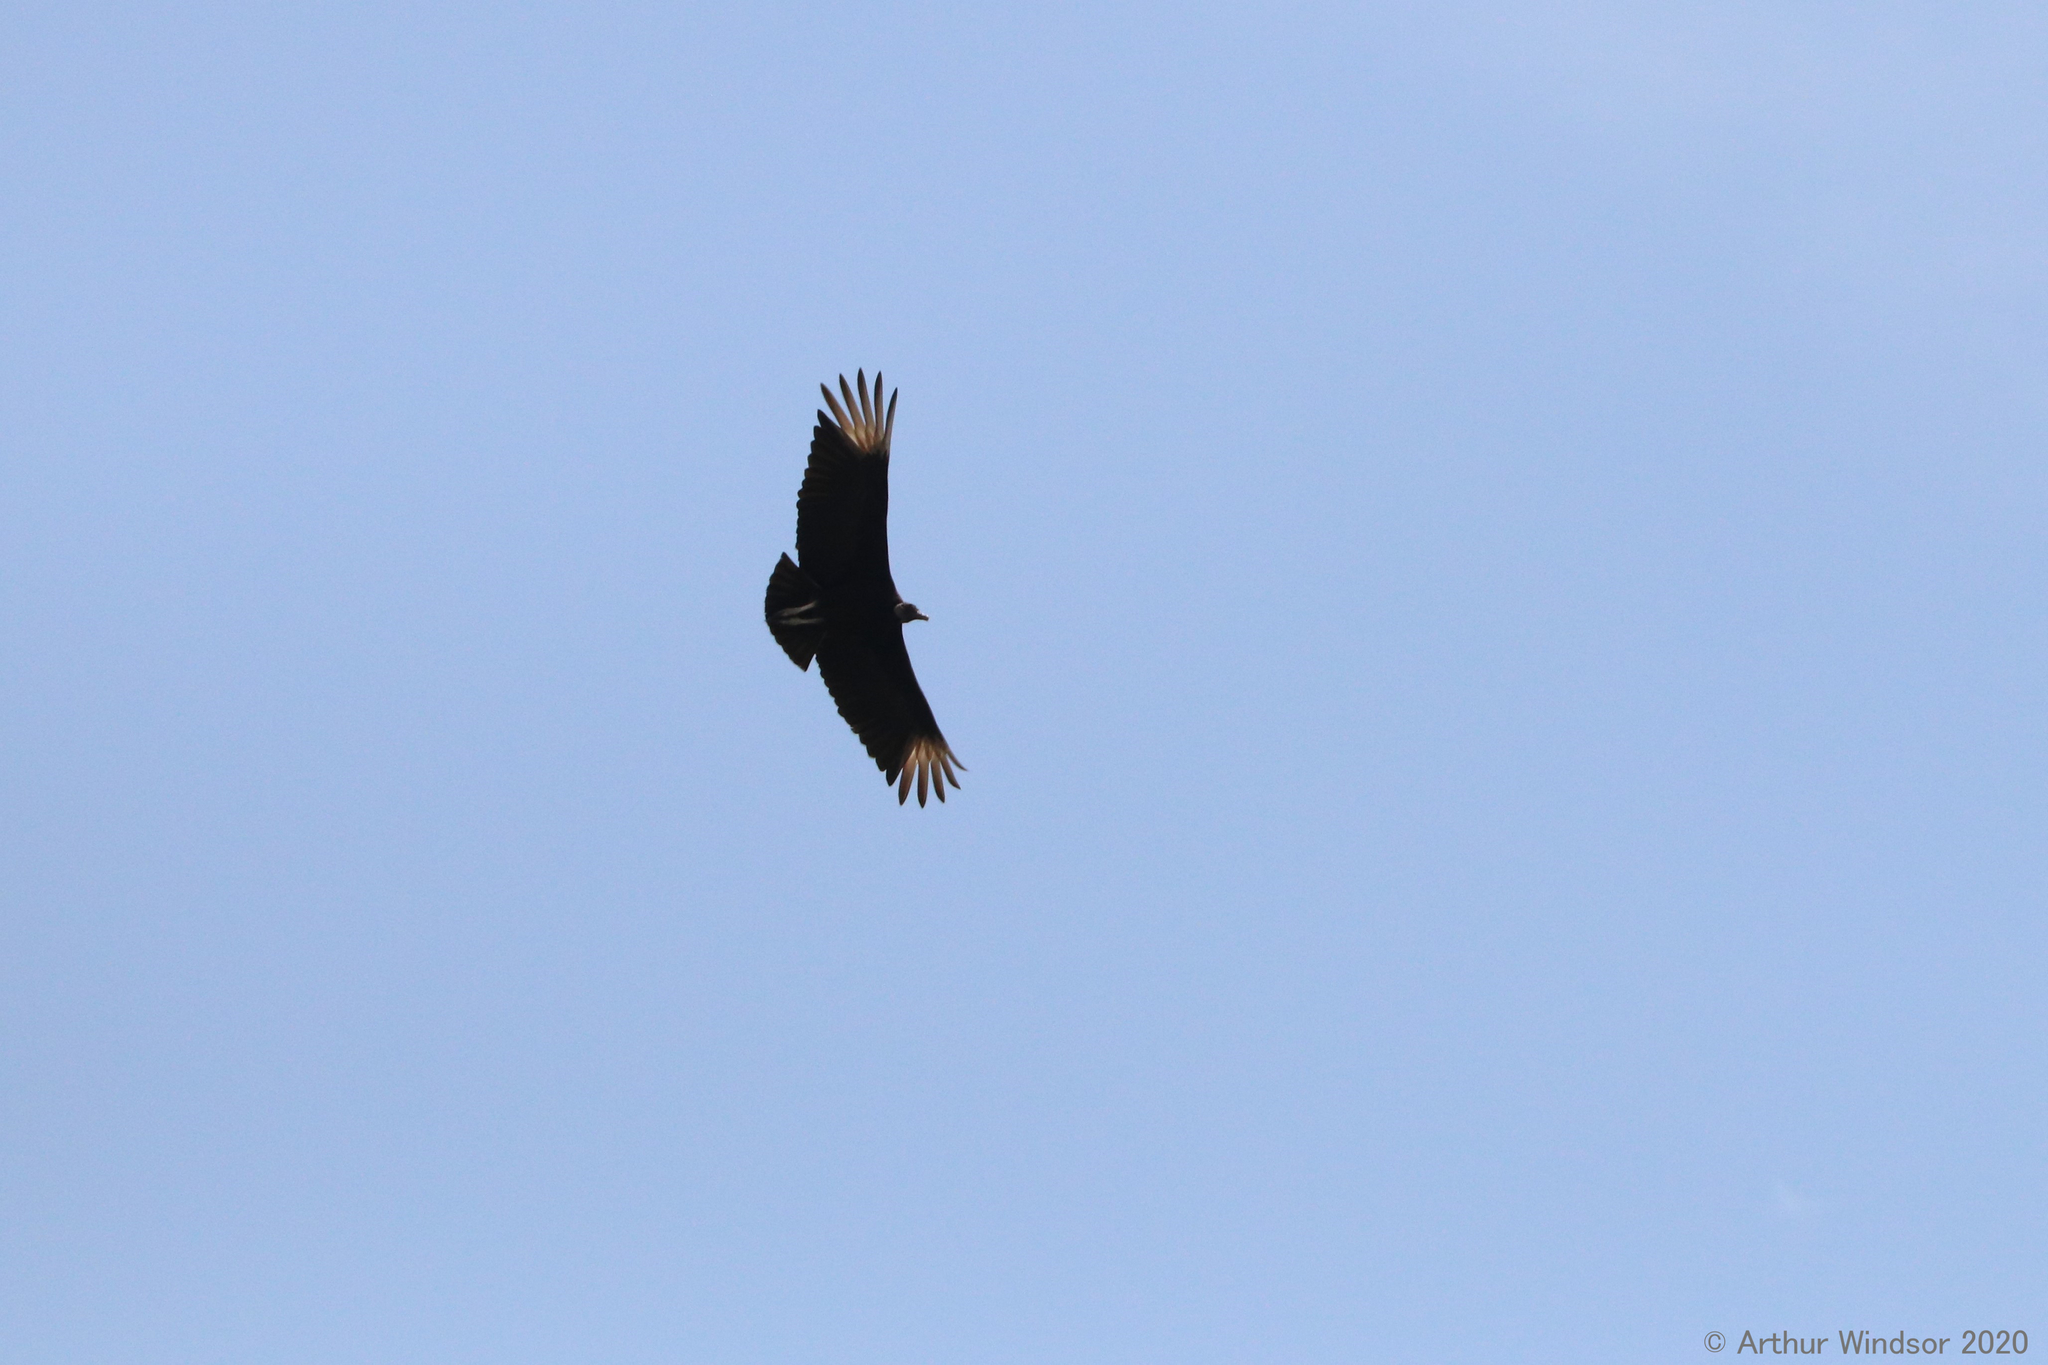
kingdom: Animalia
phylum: Chordata
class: Aves
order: Accipitriformes
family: Cathartidae
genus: Coragyps
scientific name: Coragyps atratus
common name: Black vulture
